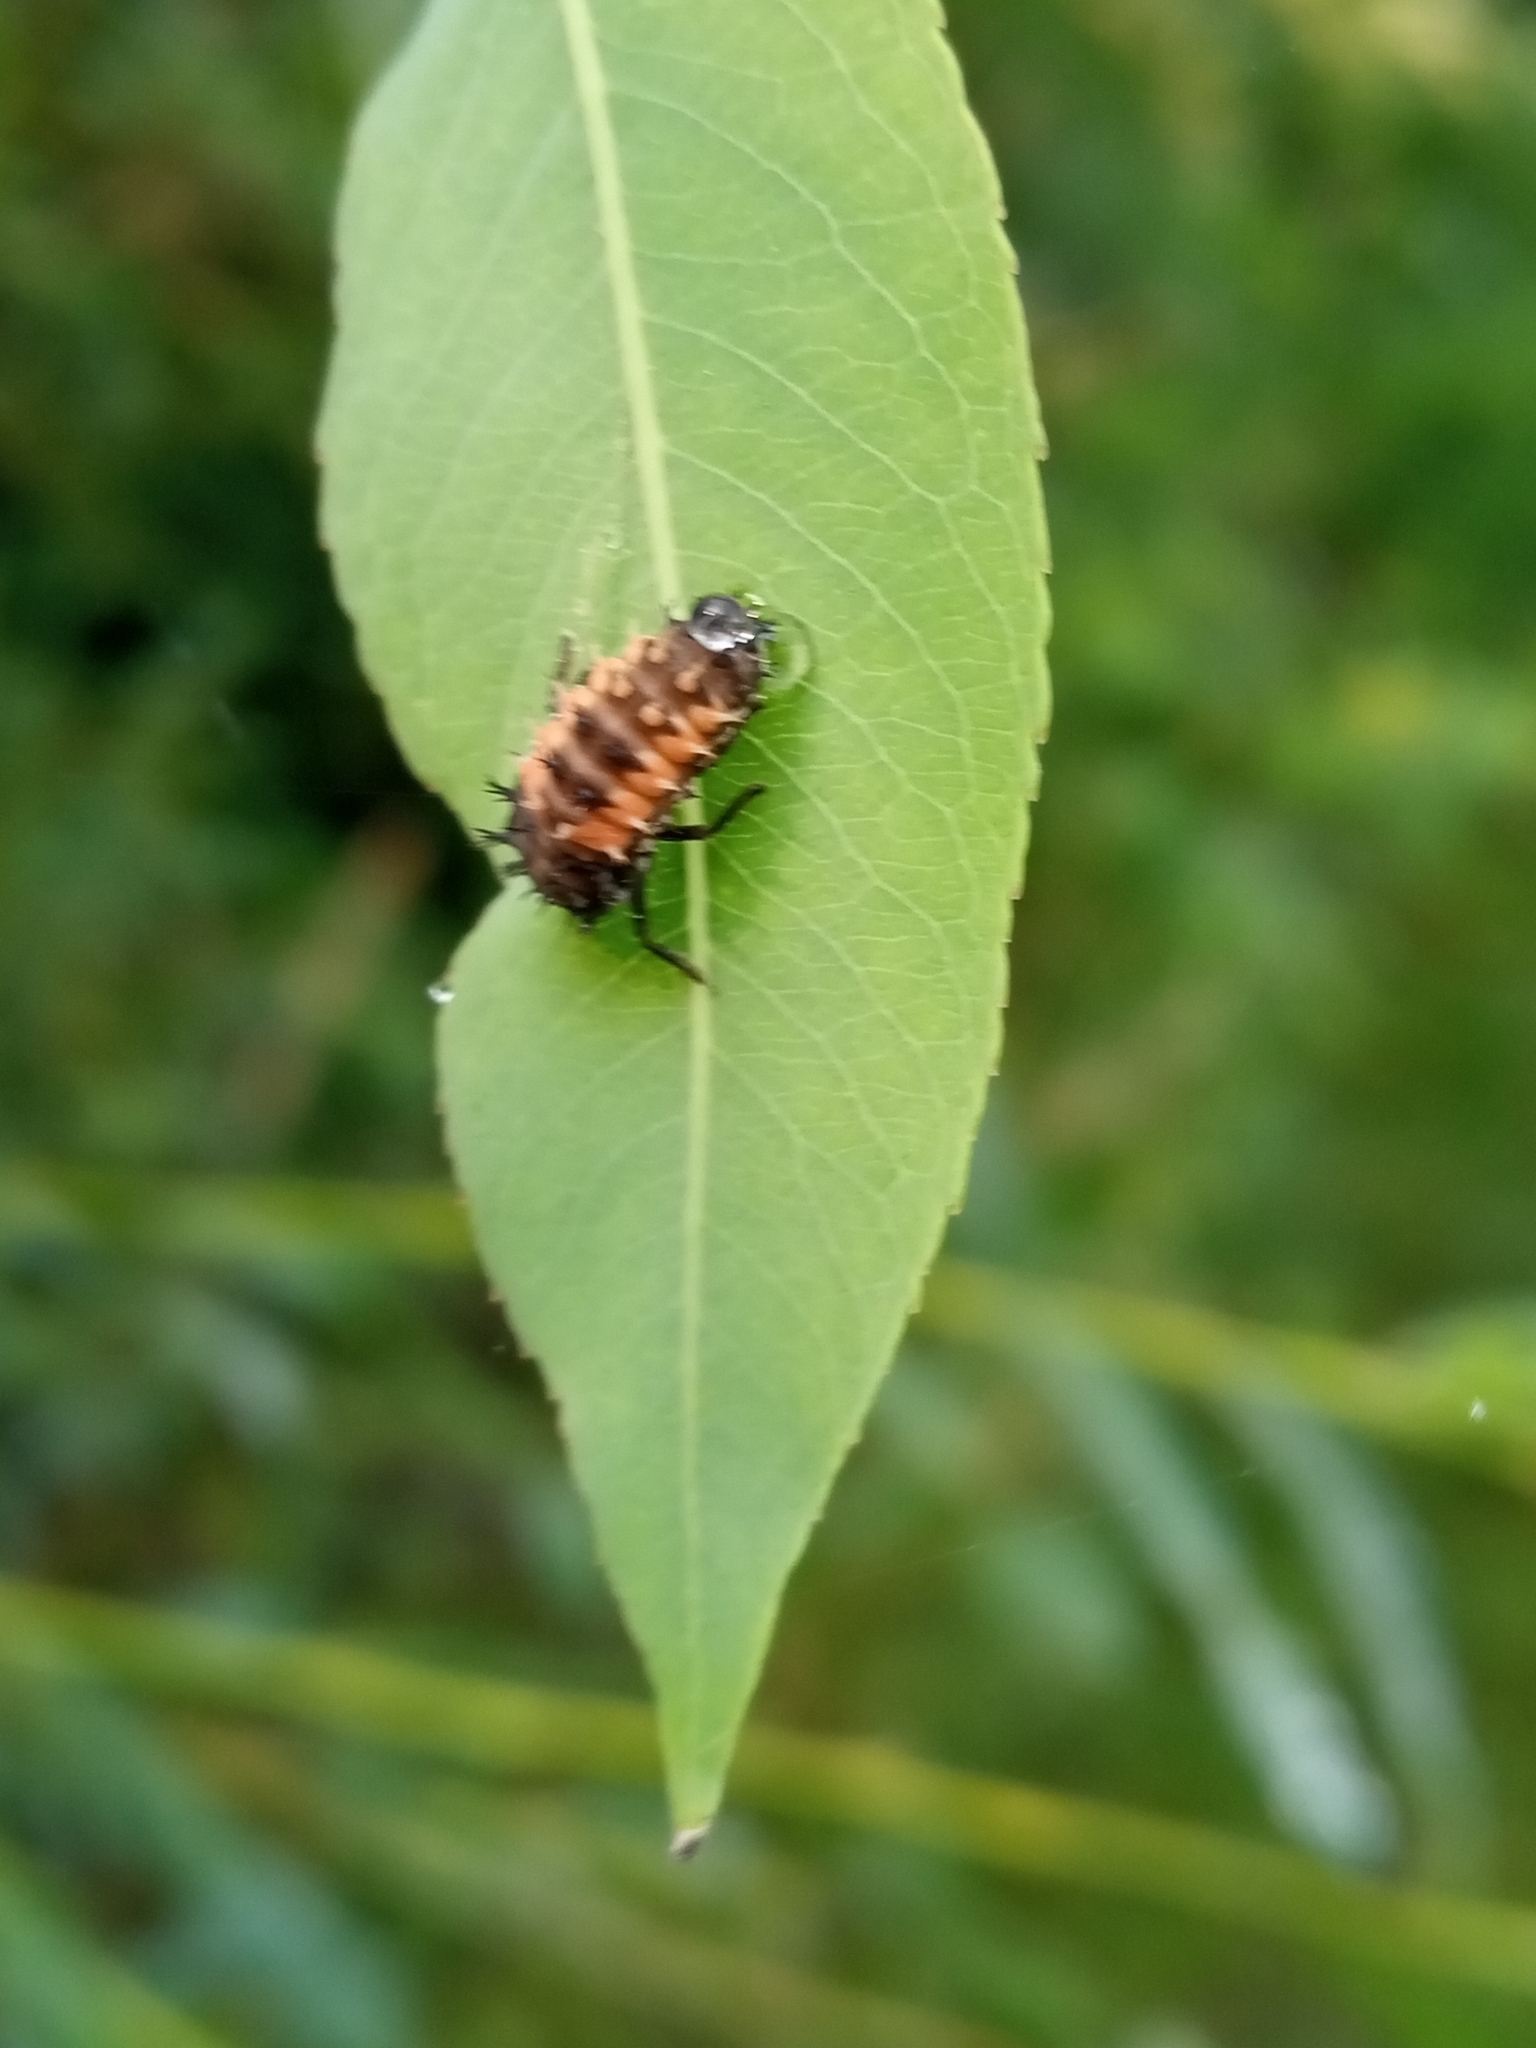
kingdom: Animalia
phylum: Arthropoda
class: Insecta
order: Coleoptera
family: Coccinellidae
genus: Harmonia
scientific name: Harmonia axyridis
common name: Harlequin ladybird
